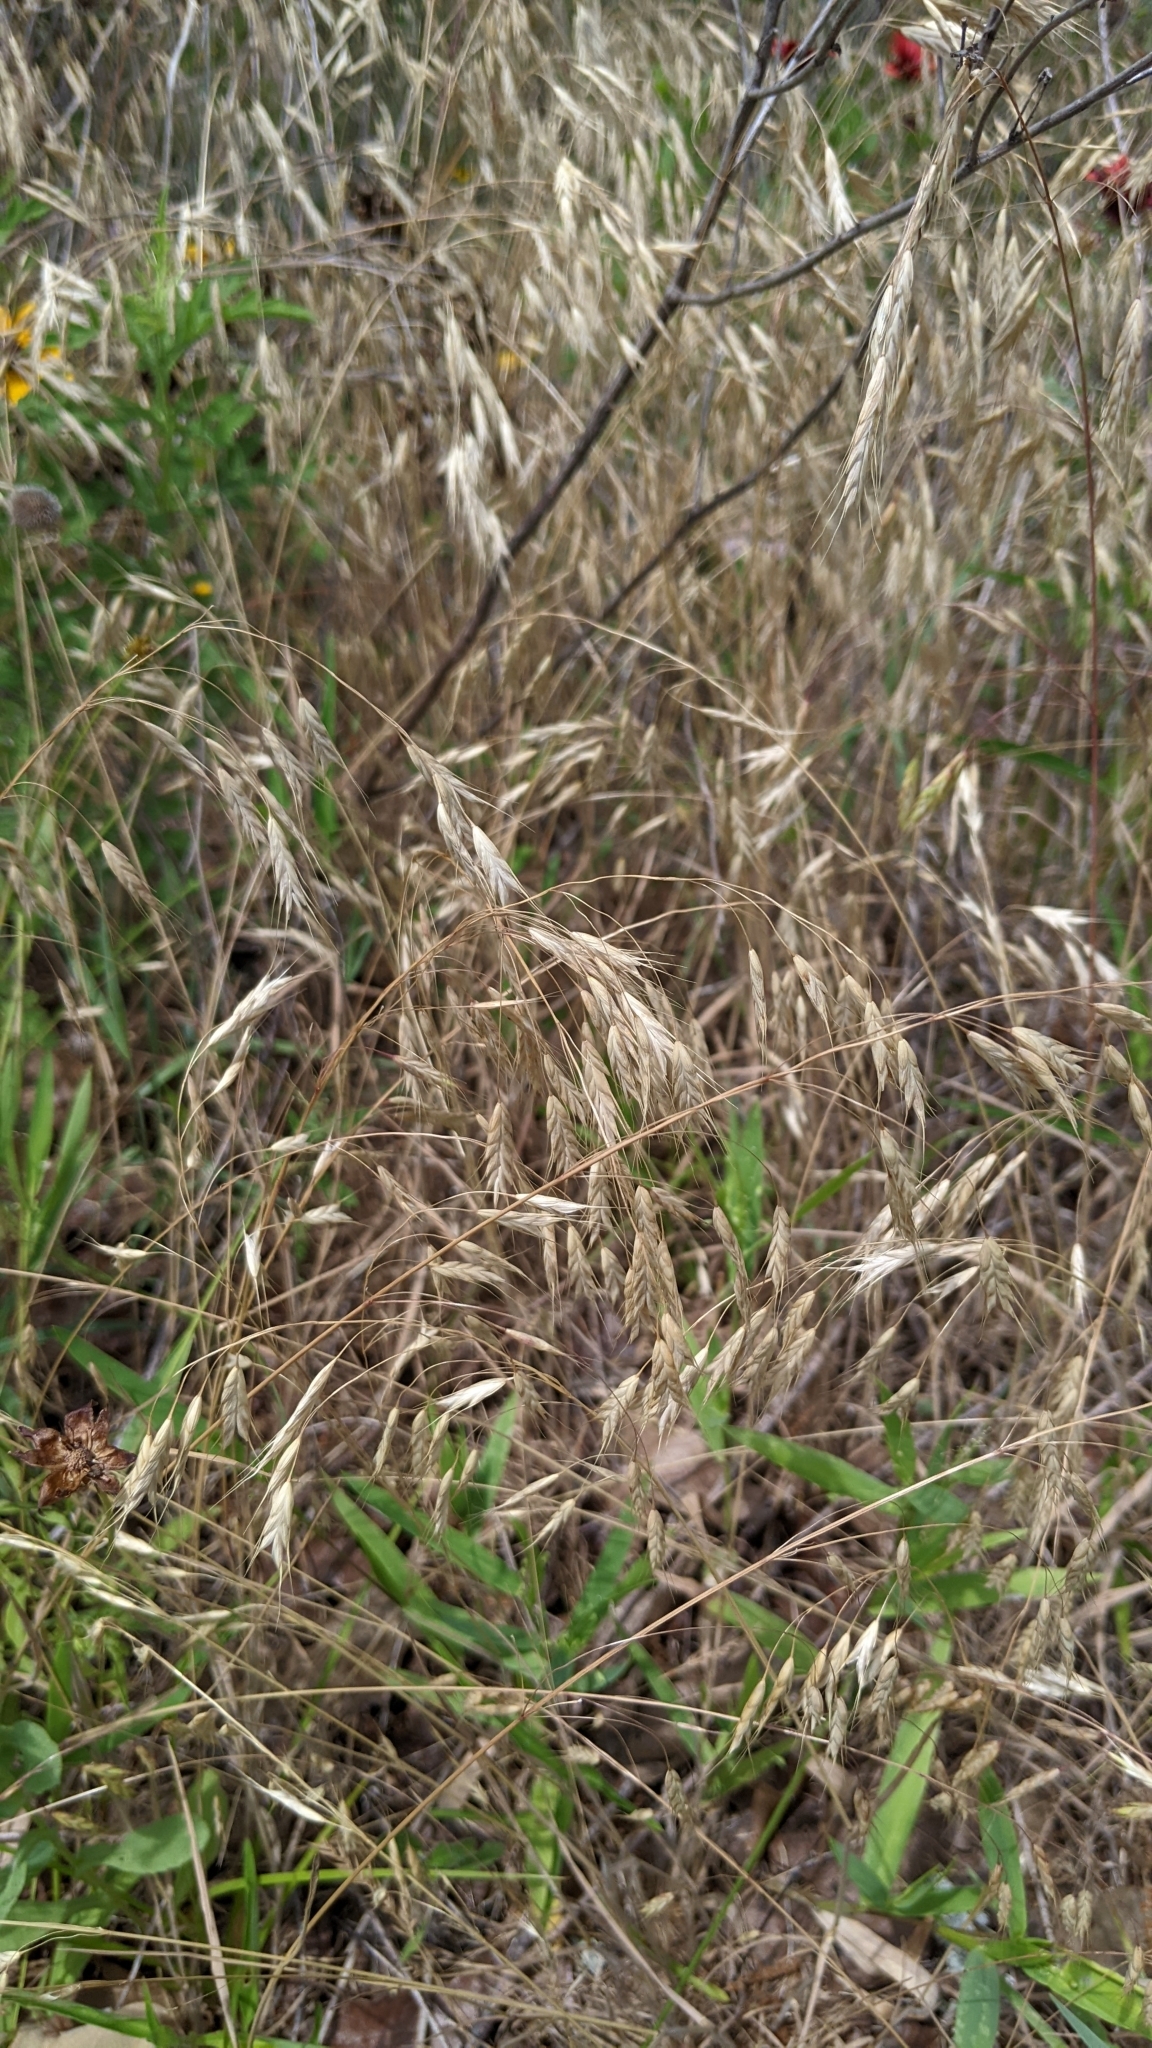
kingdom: Plantae
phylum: Tracheophyta
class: Liliopsida
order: Poales
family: Poaceae
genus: Bromus
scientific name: Bromus japonicus
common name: Japanese brome
